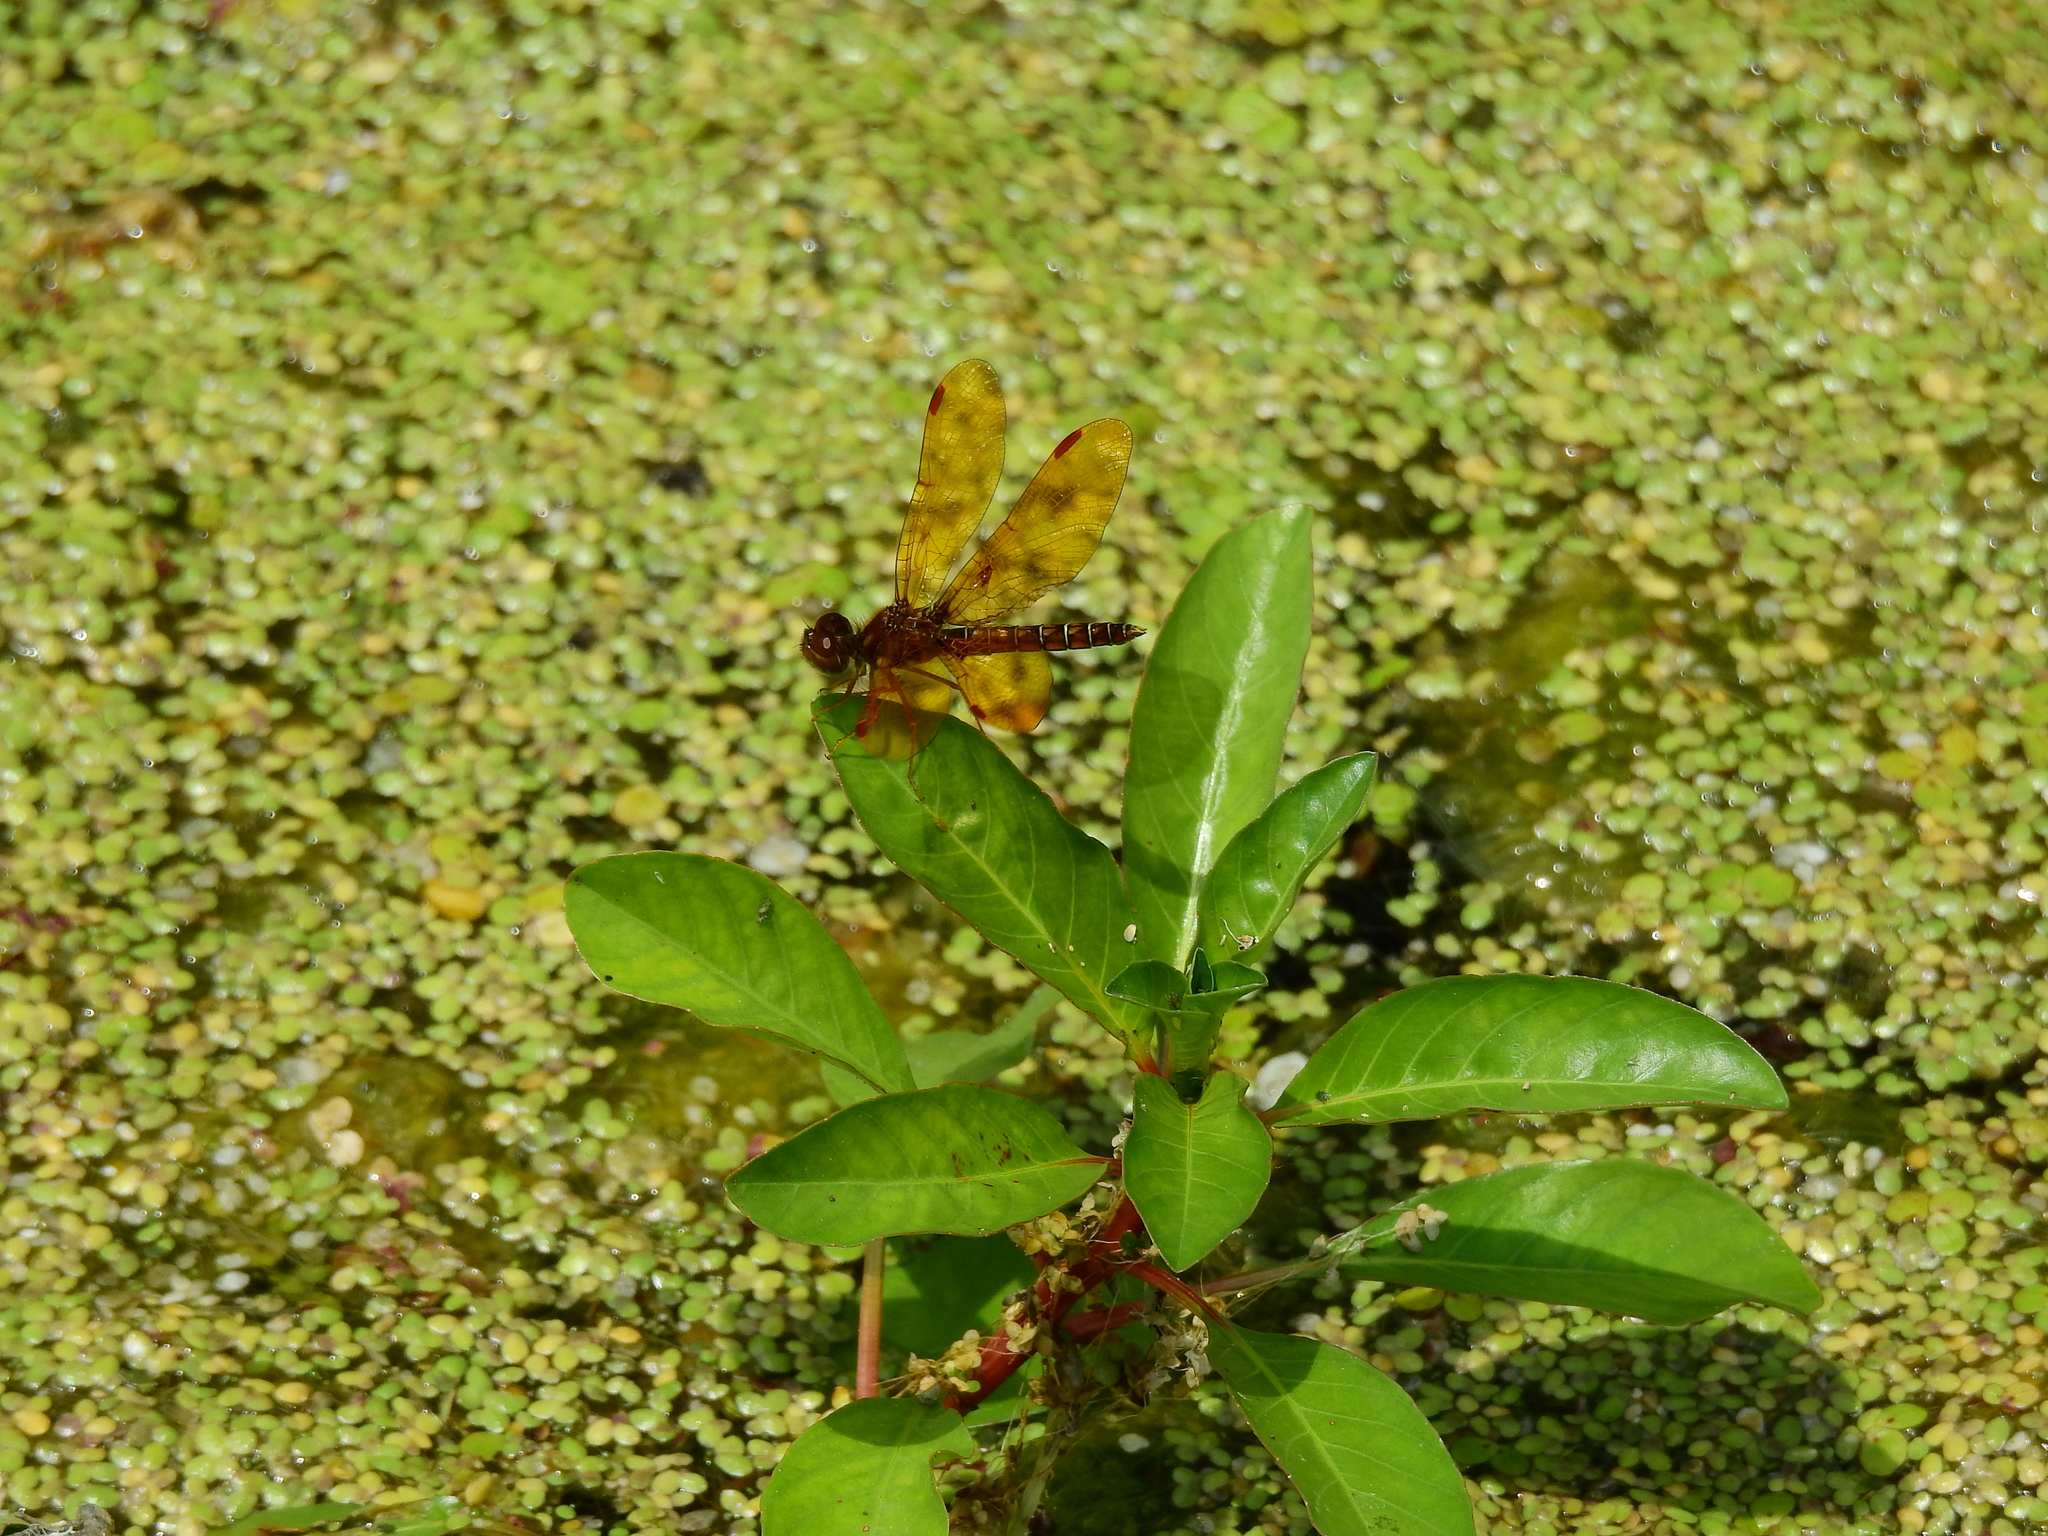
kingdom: Animalia
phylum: Arthropoda
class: Insecta
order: Odonata
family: Libellulidae
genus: Perithemis
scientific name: Perithemis tenera
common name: Eastern amberwing
